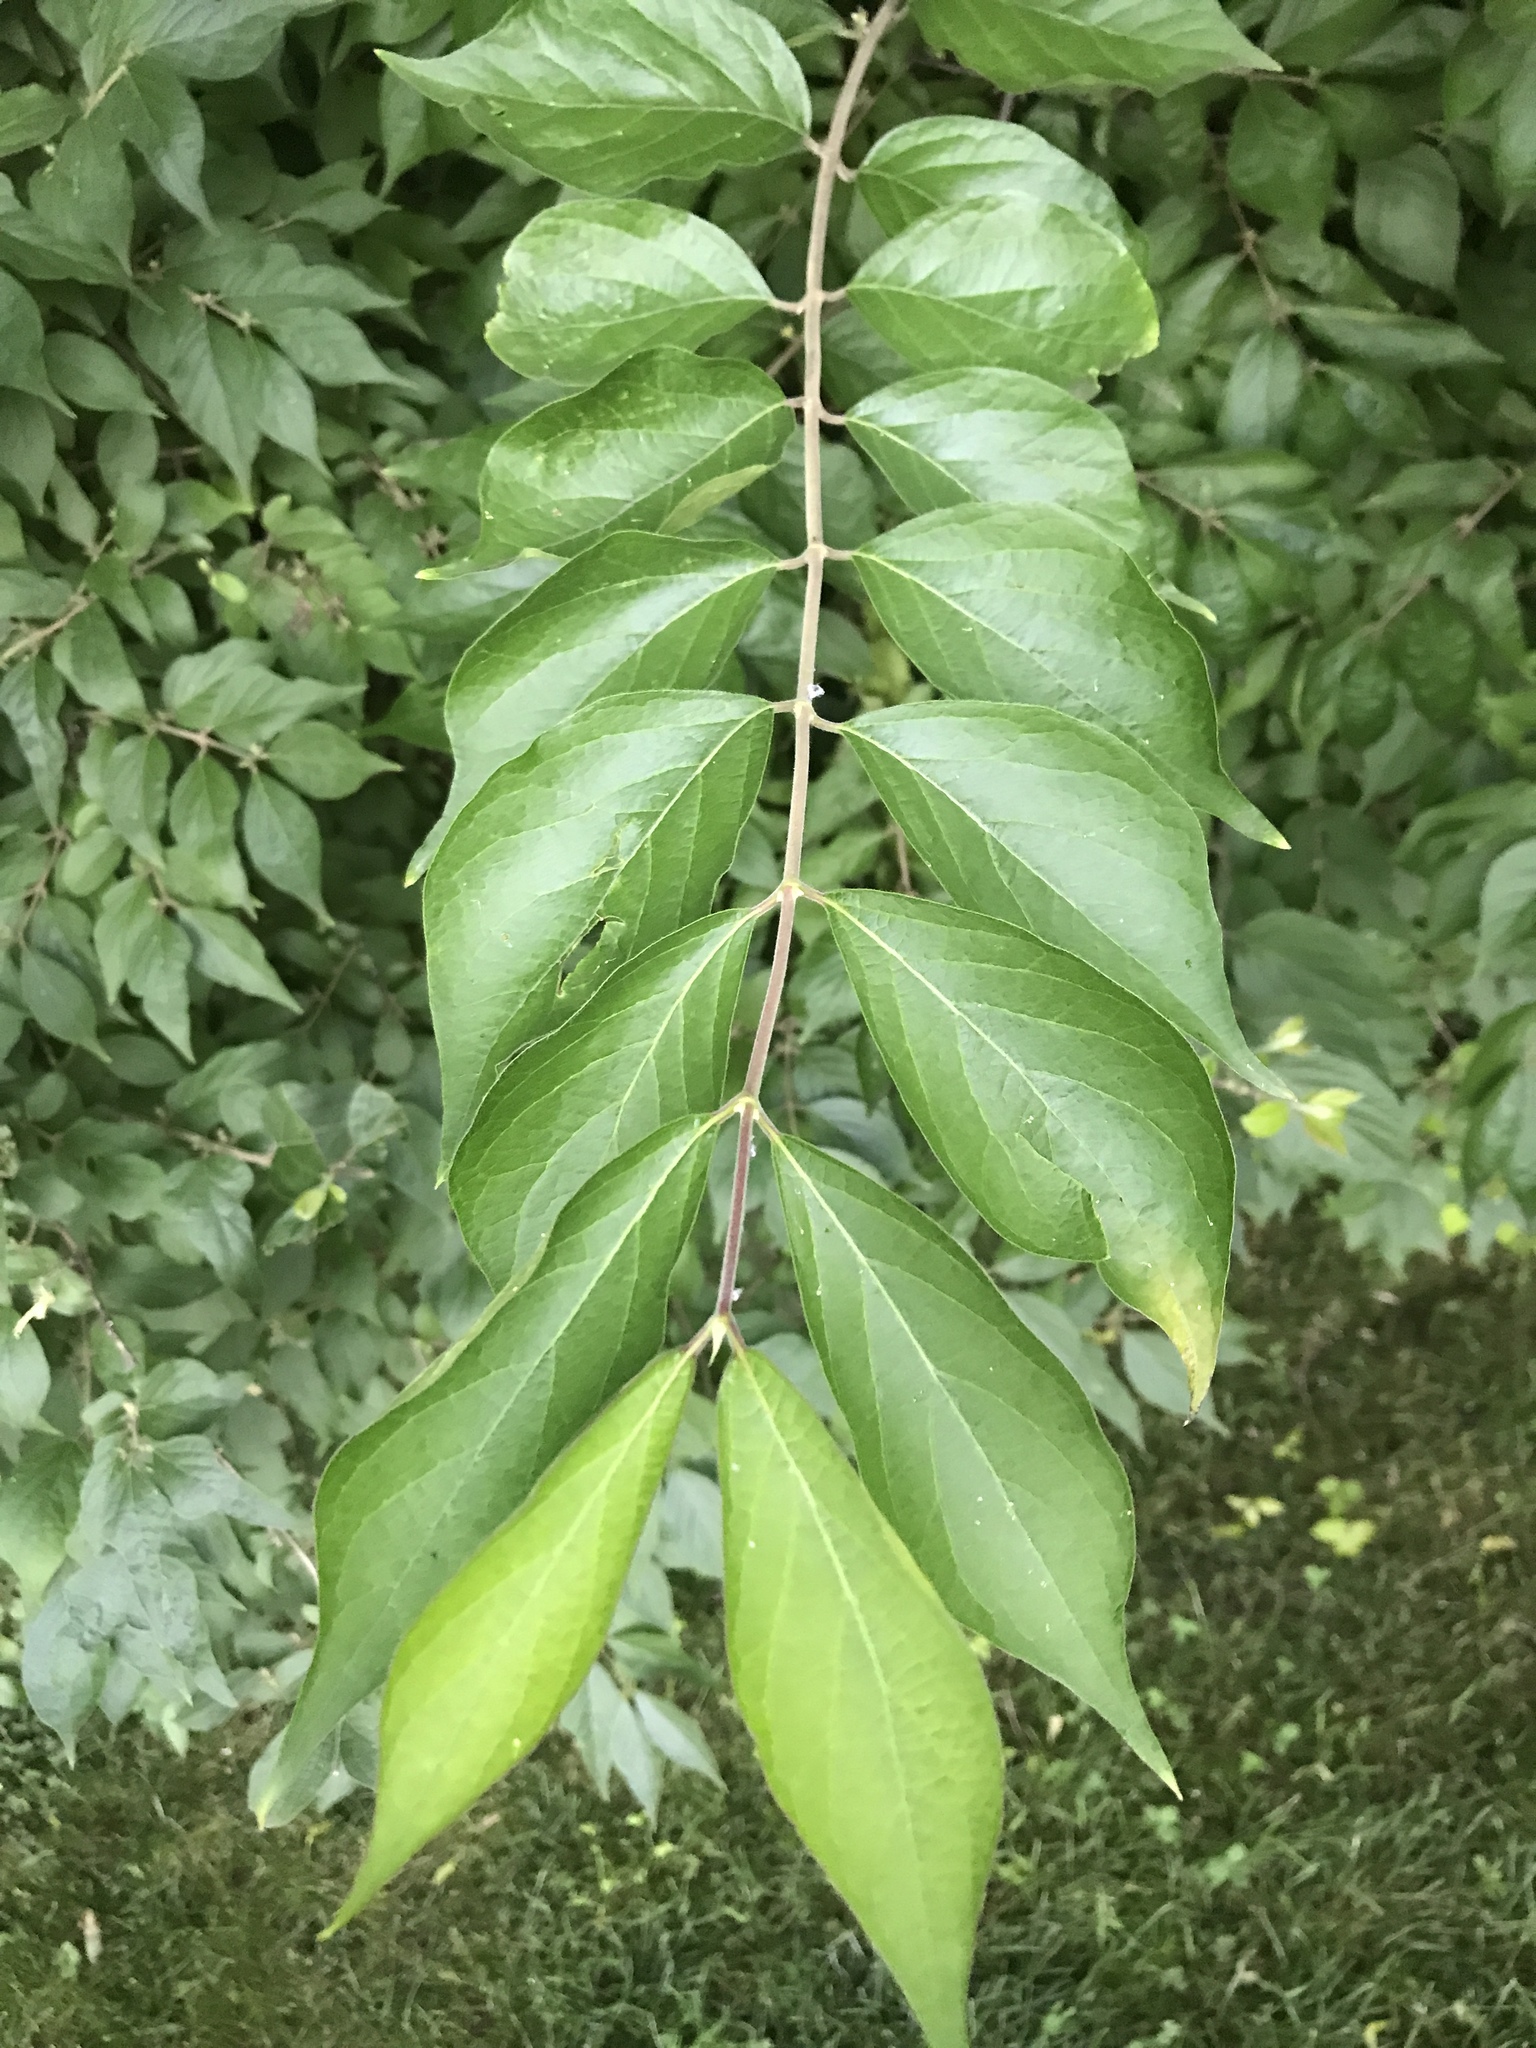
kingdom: Plantae
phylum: Tracheophyta
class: Magnoliopsida
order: Dipsacales
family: Caprifoliaceae
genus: Lonicera
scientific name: Lonicera maackii
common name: Amur honeysuckle
